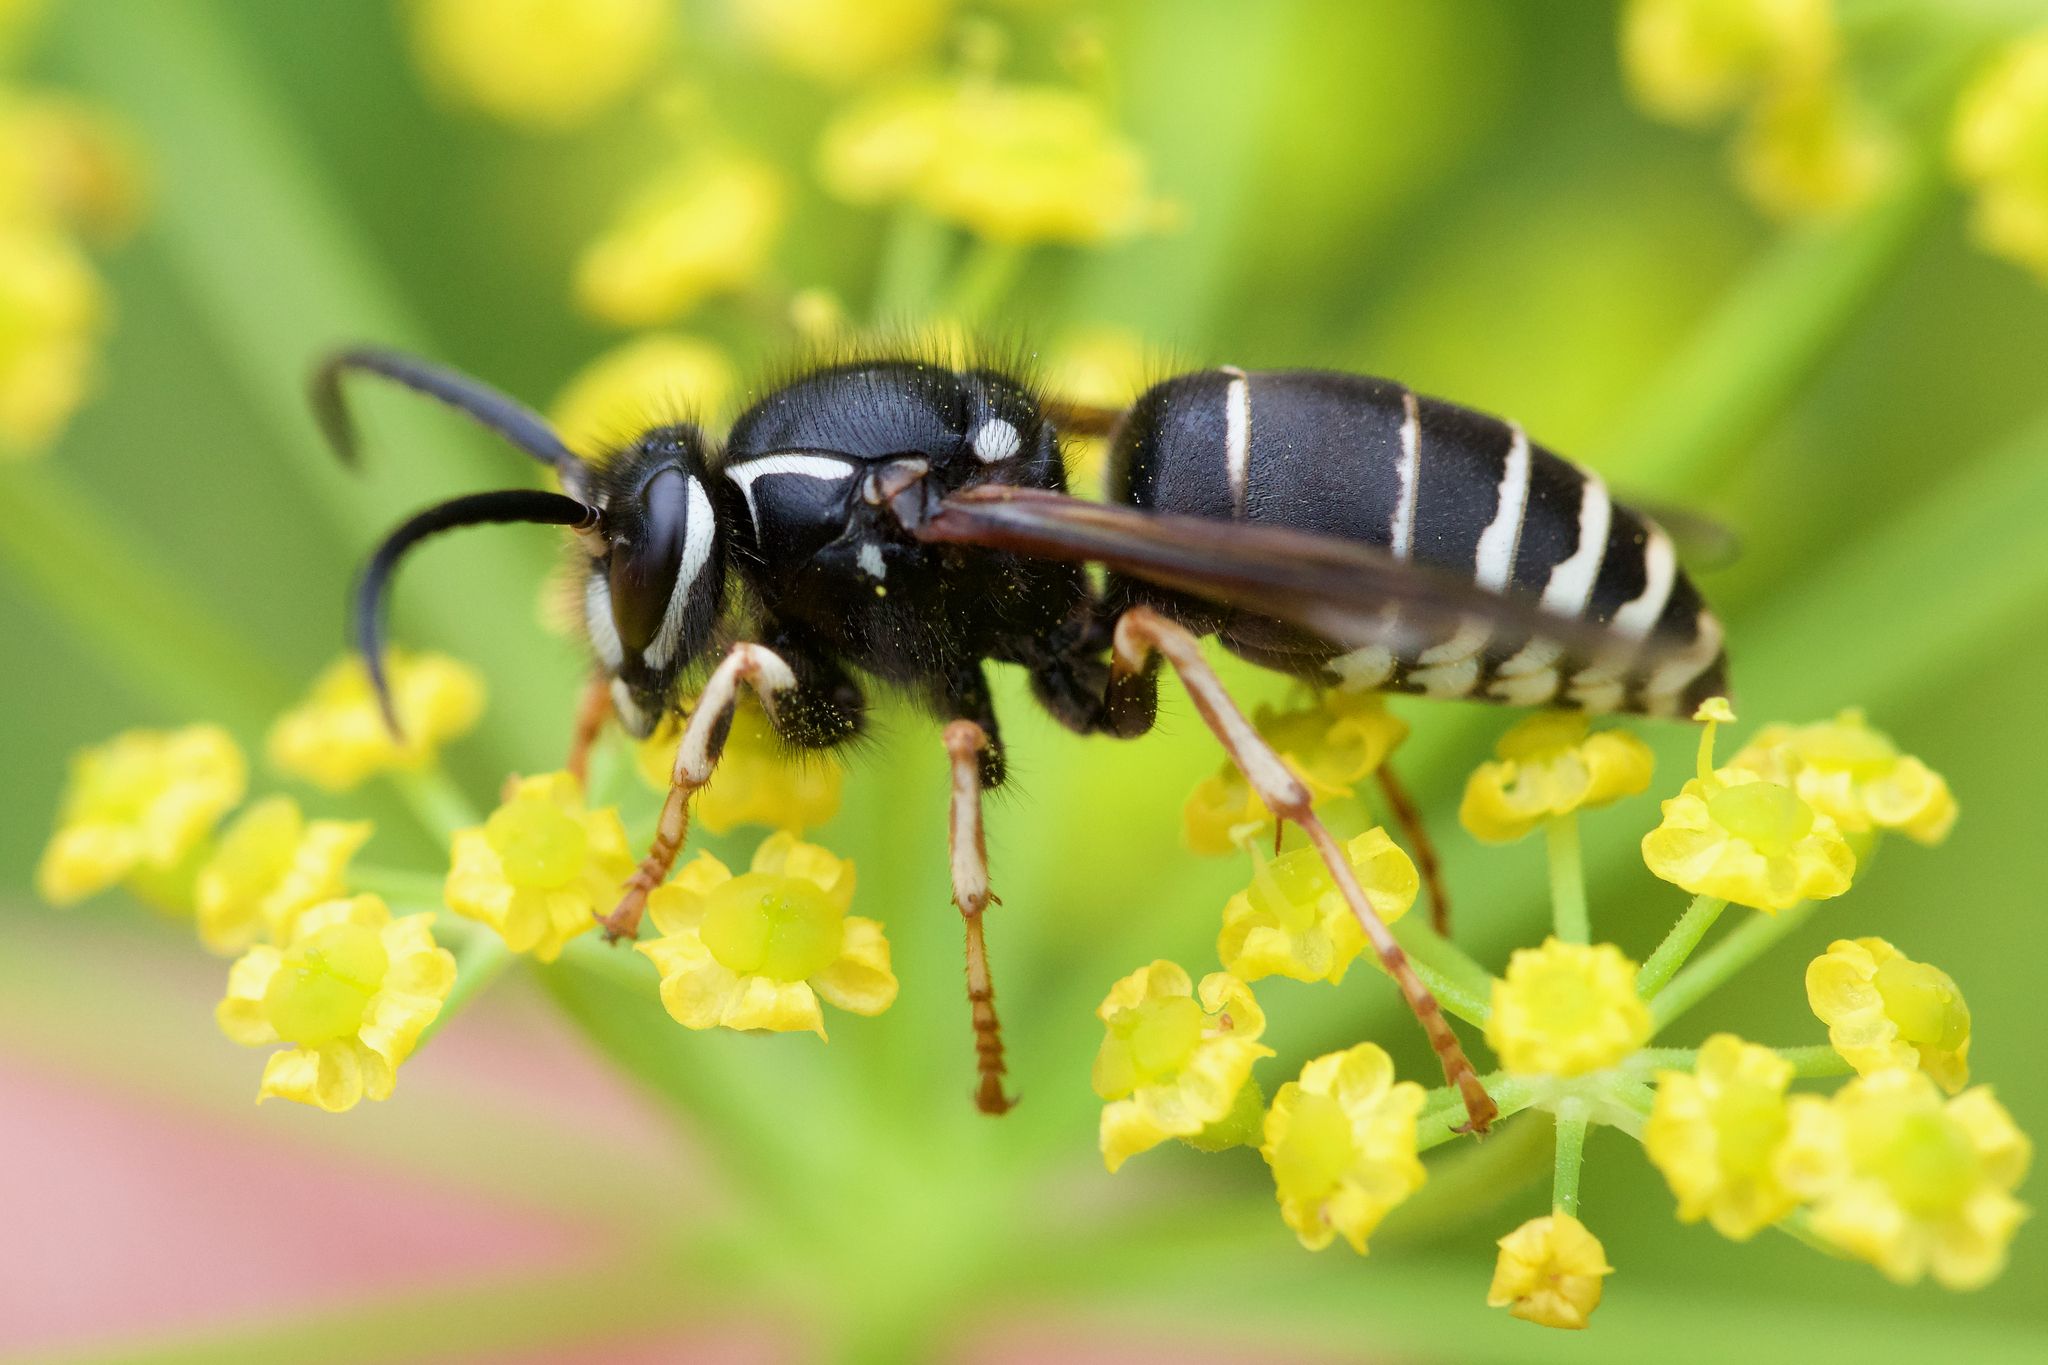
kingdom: Animalia
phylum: Arthropoda
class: Insecta
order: Hymenoptera
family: Vespidae
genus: Dolichovespula
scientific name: Dolichovespula adulterina
